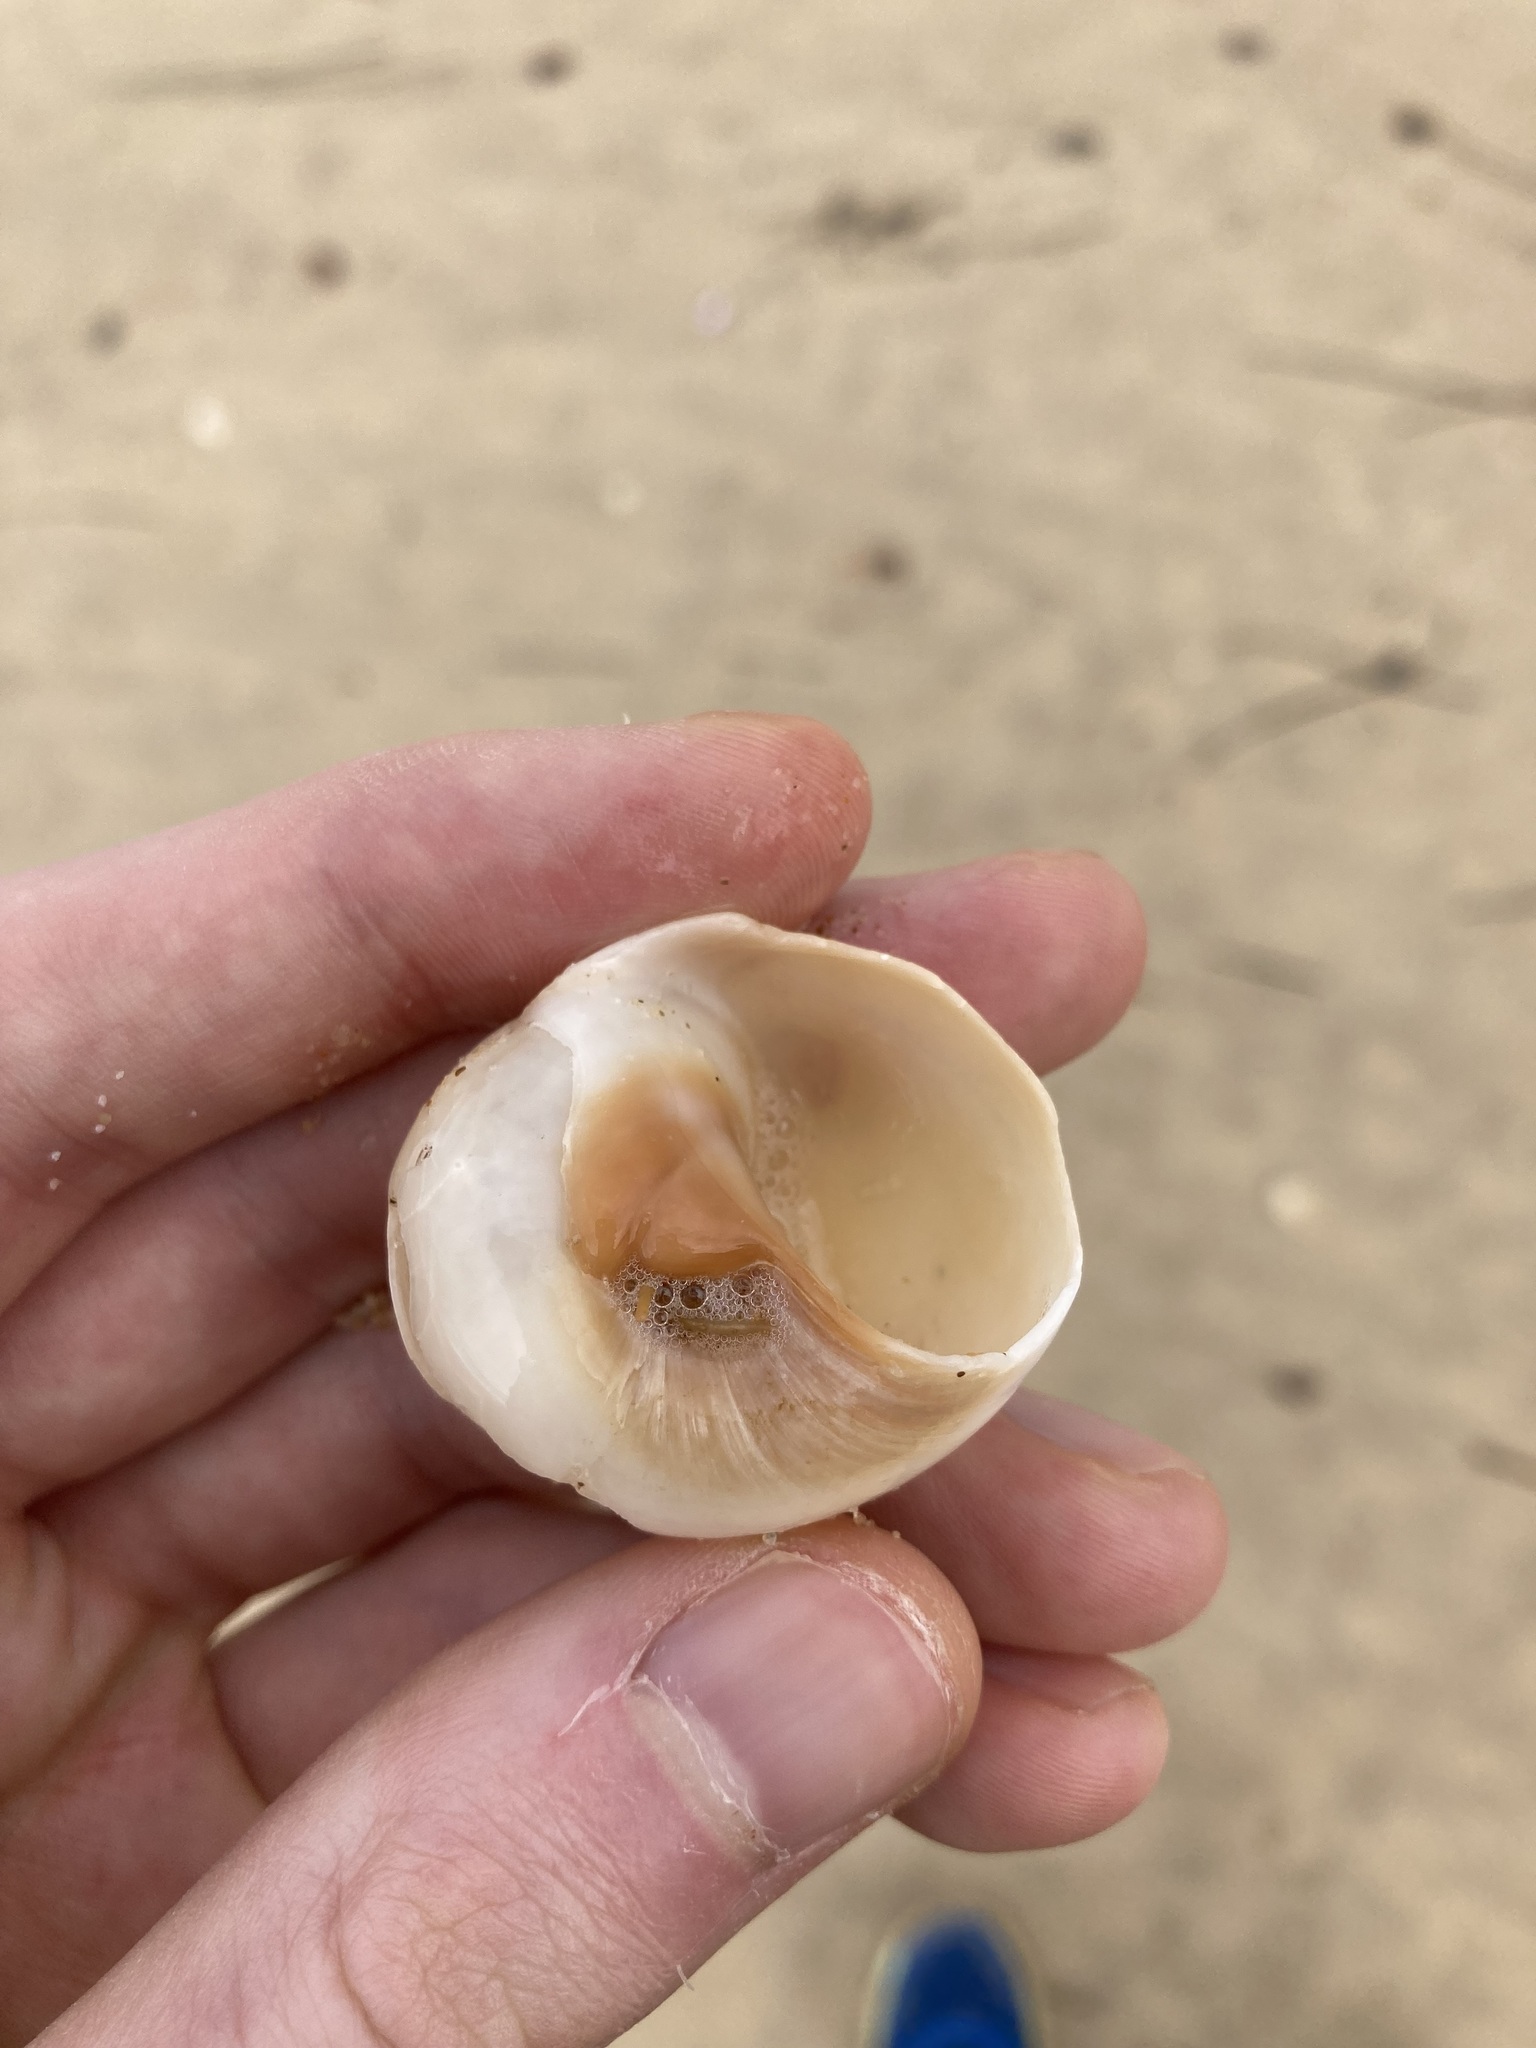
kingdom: Animalia
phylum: Mollusca
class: Gastropoda
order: Littorinimorpha
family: Naticidae
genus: Neverita
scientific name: Neverita didyma
